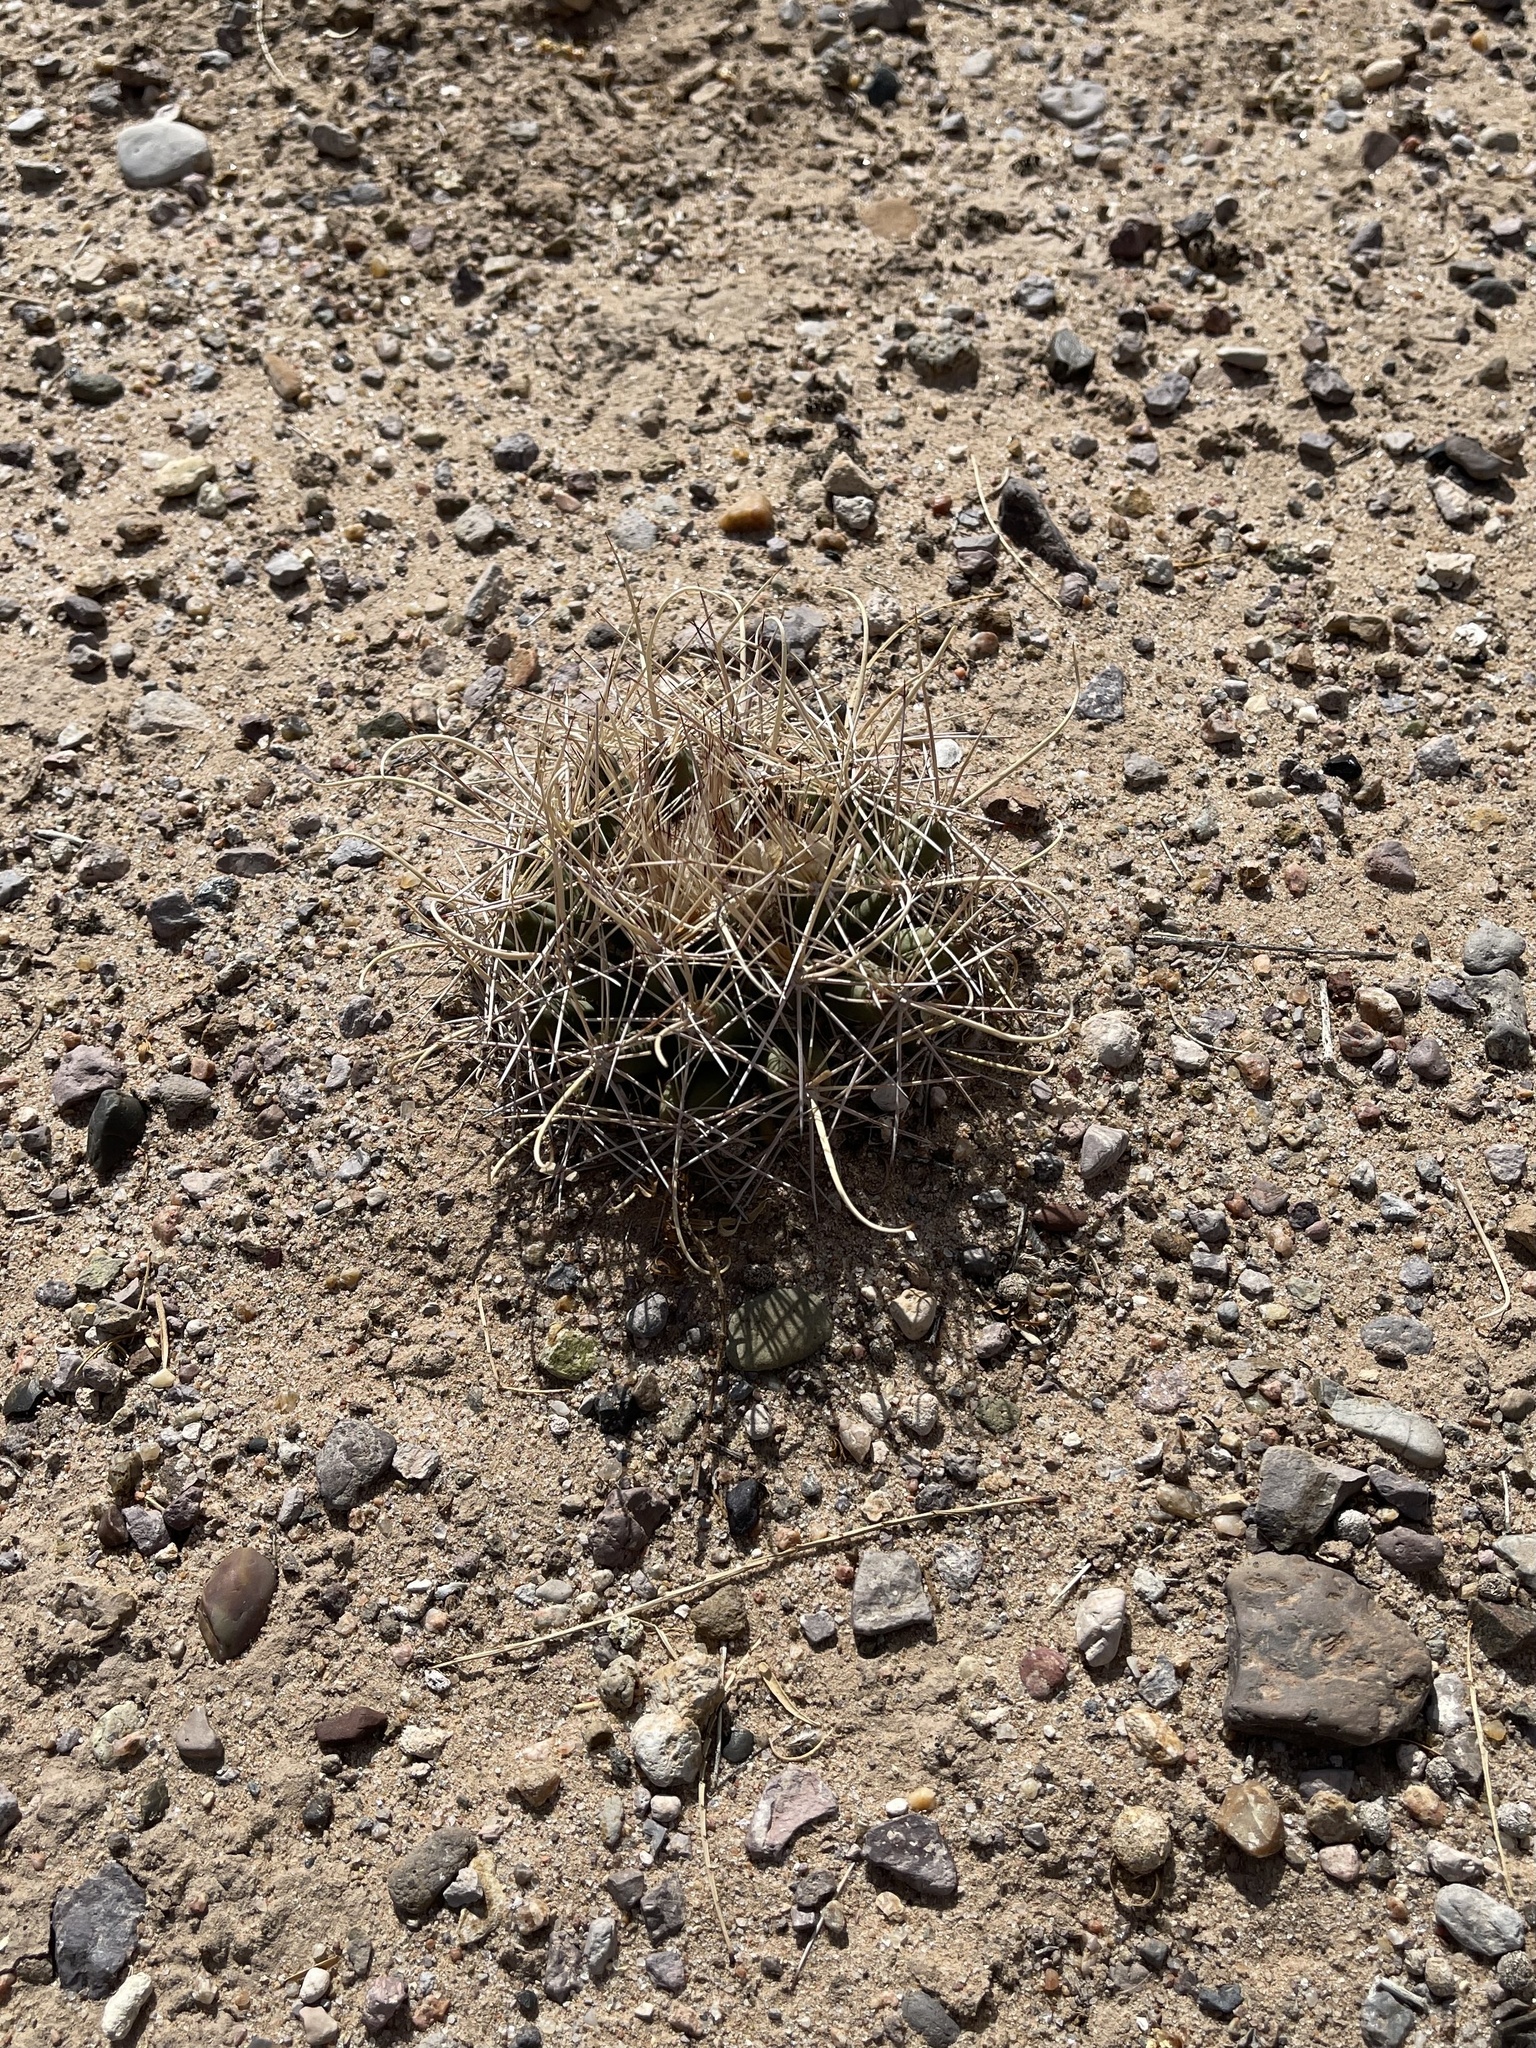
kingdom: Plantae
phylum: Tracheophyta
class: Magnoliopsida
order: Caryophyllales
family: Cactaceae
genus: Coryphantha
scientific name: Coryphantha robustispina
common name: Pima pineapple cactus
